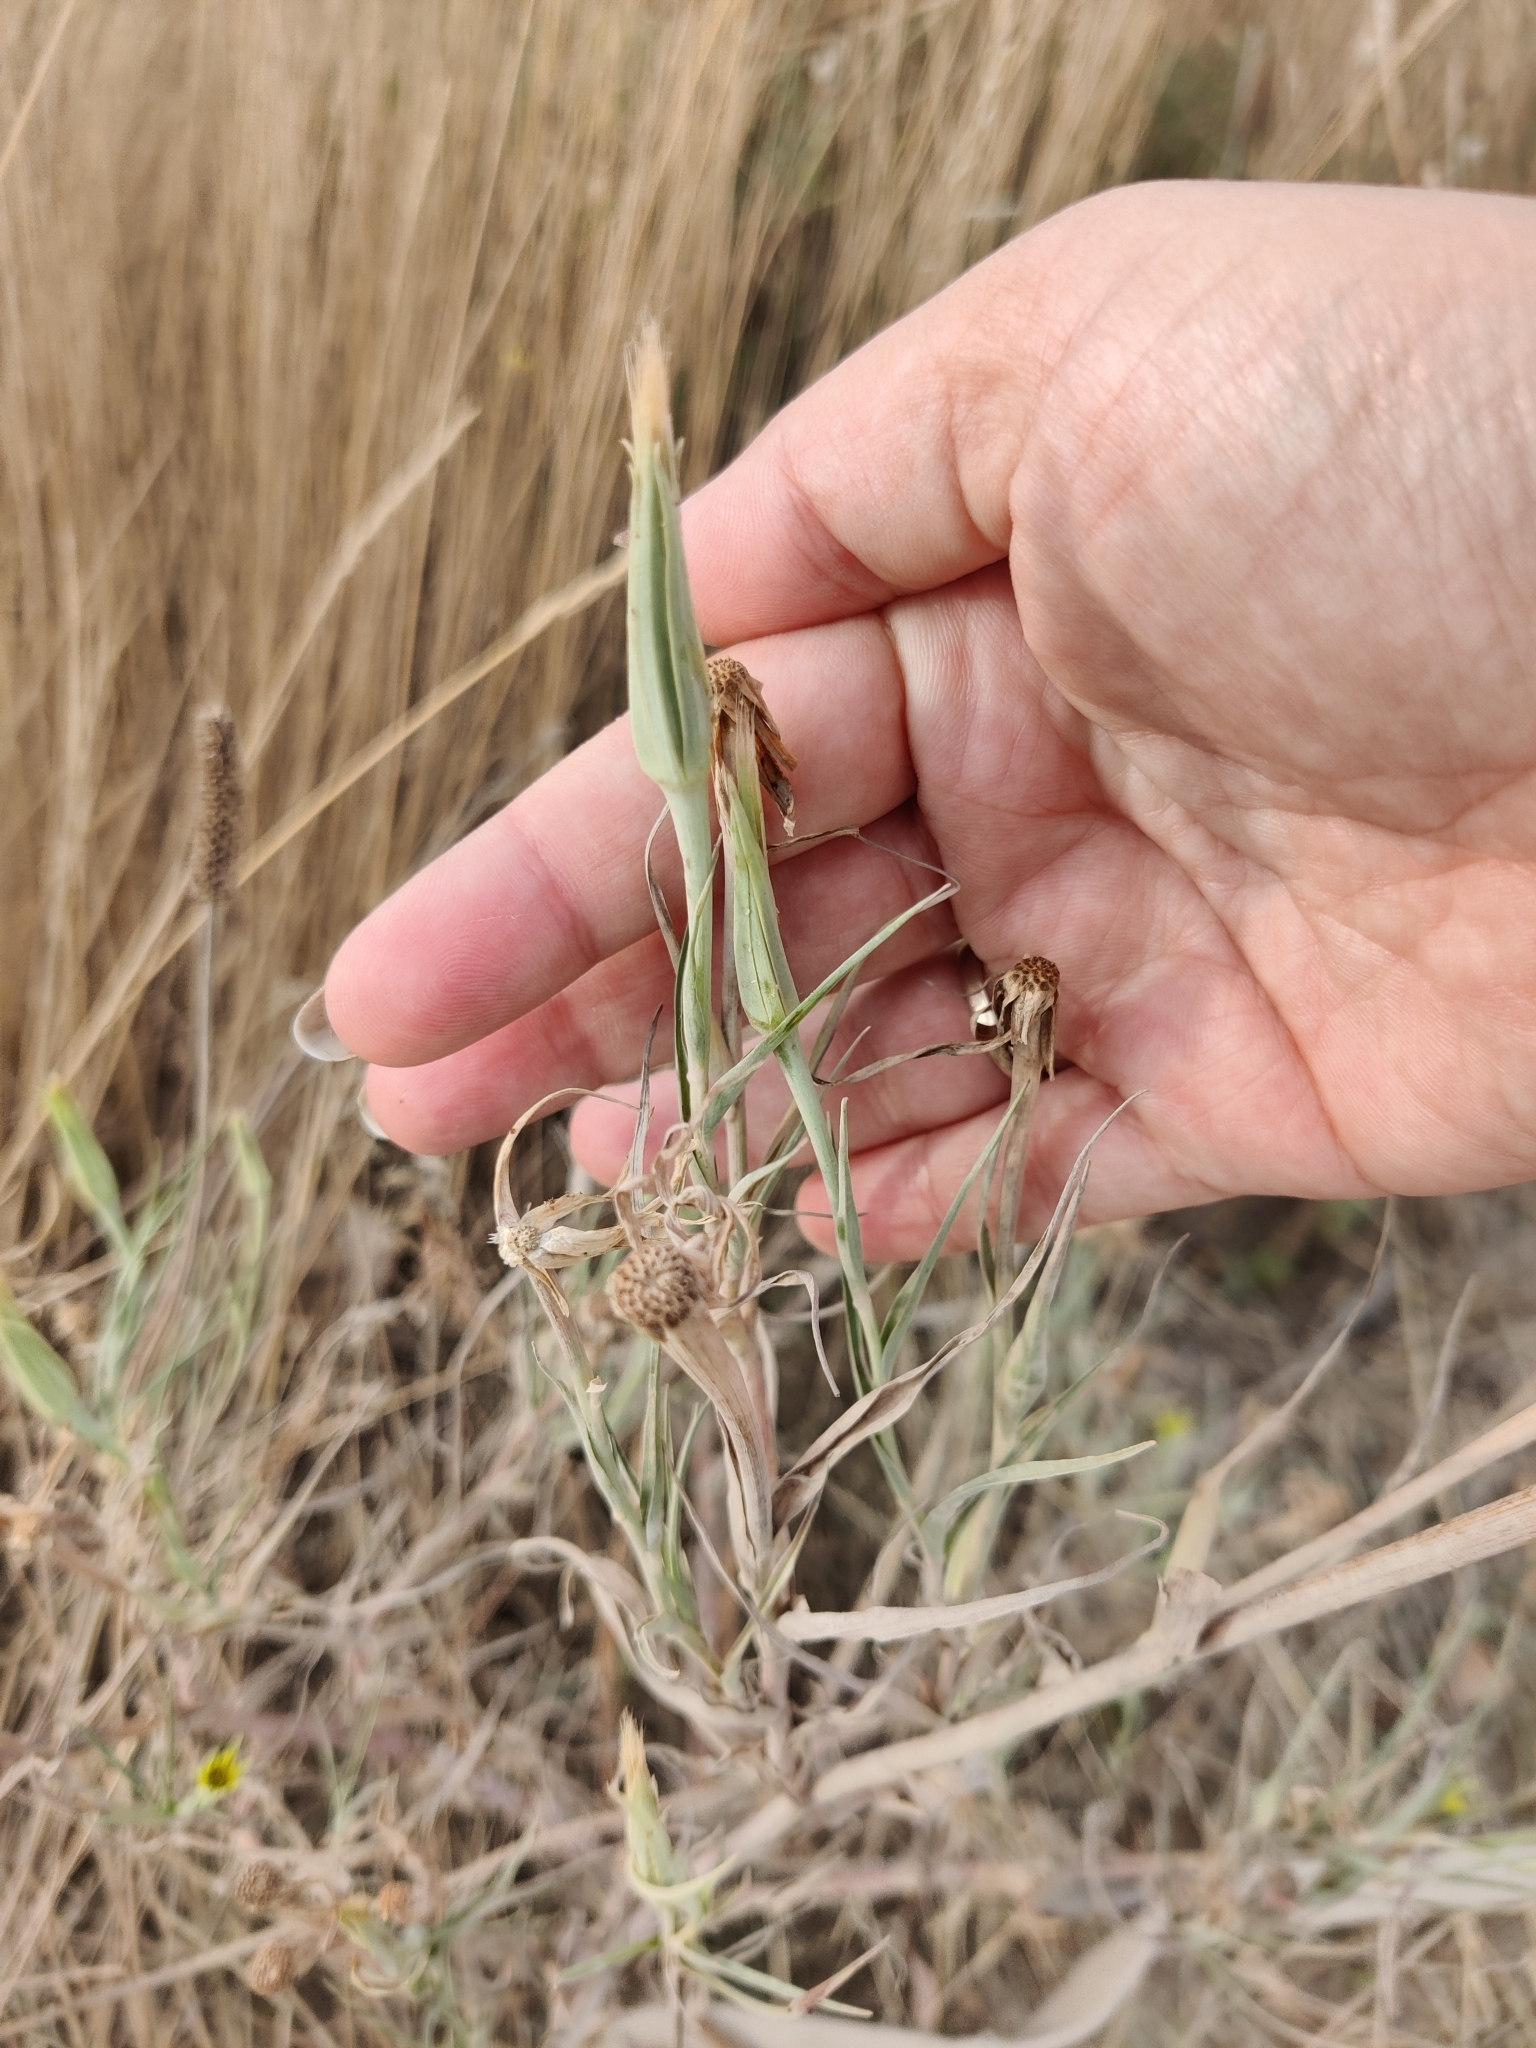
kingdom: Plantae
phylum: Tracheophyta
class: Magnoliopsida
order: Asterales
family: Asteraceae
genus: Tragopogon
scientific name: Tragopogon dubius
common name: Yellow salsify
